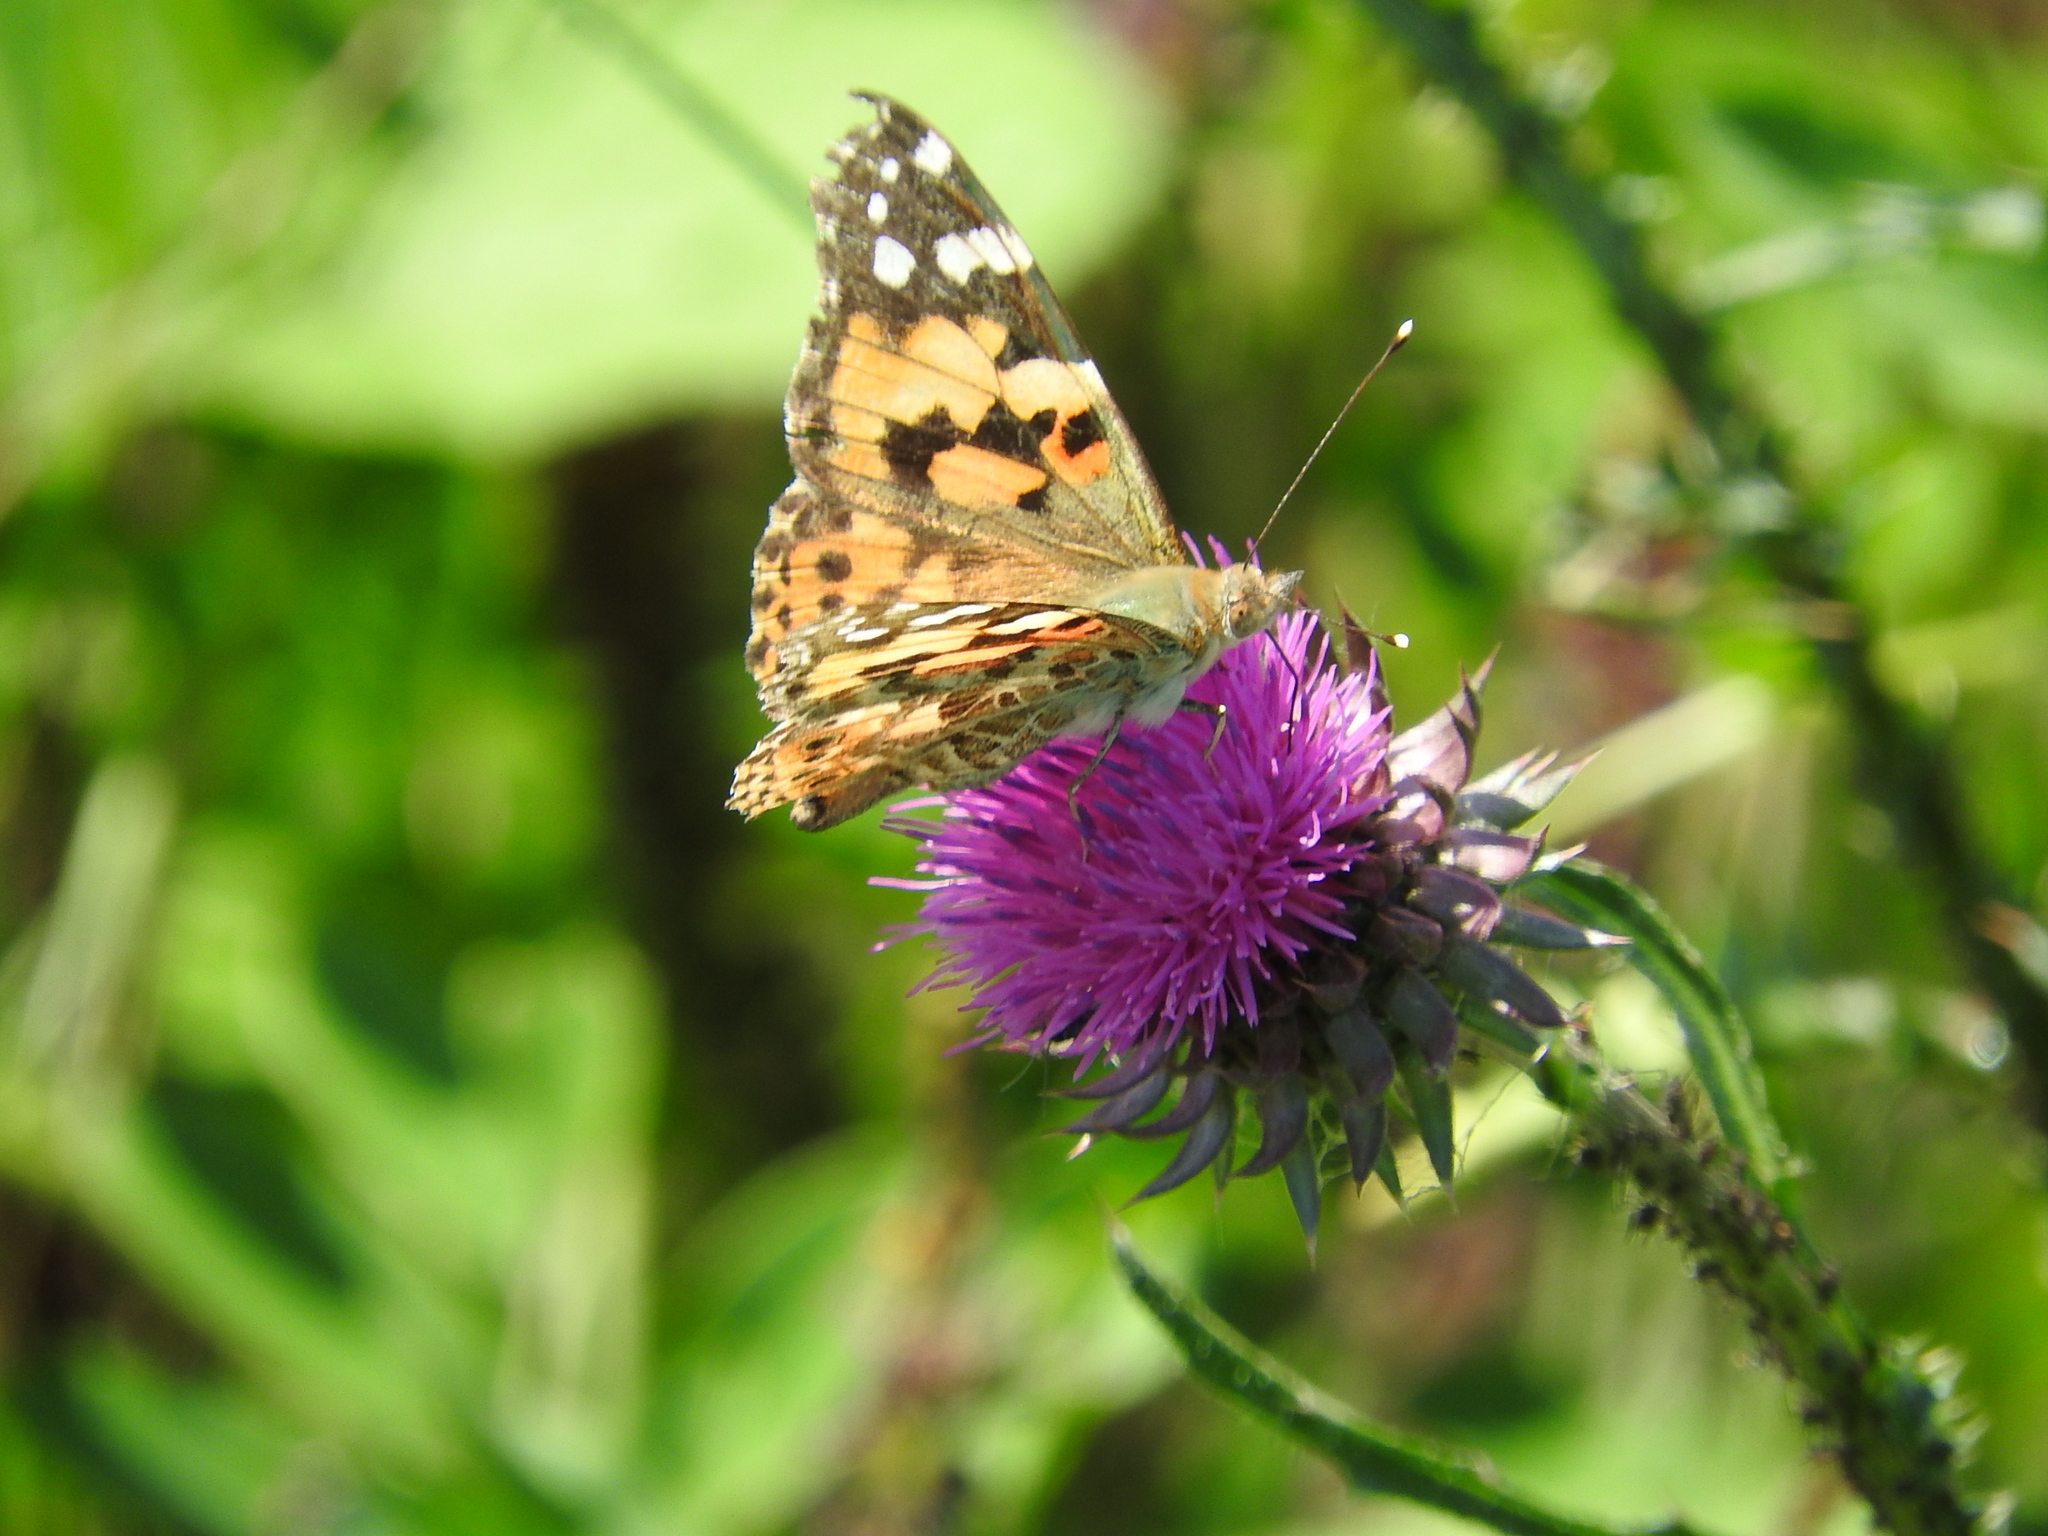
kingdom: Animalia
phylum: Arthropoda
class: Insecta
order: Lepidoptera
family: Nymphalidae
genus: Vanessa
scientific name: Vanessa cardui
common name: Painted lady
